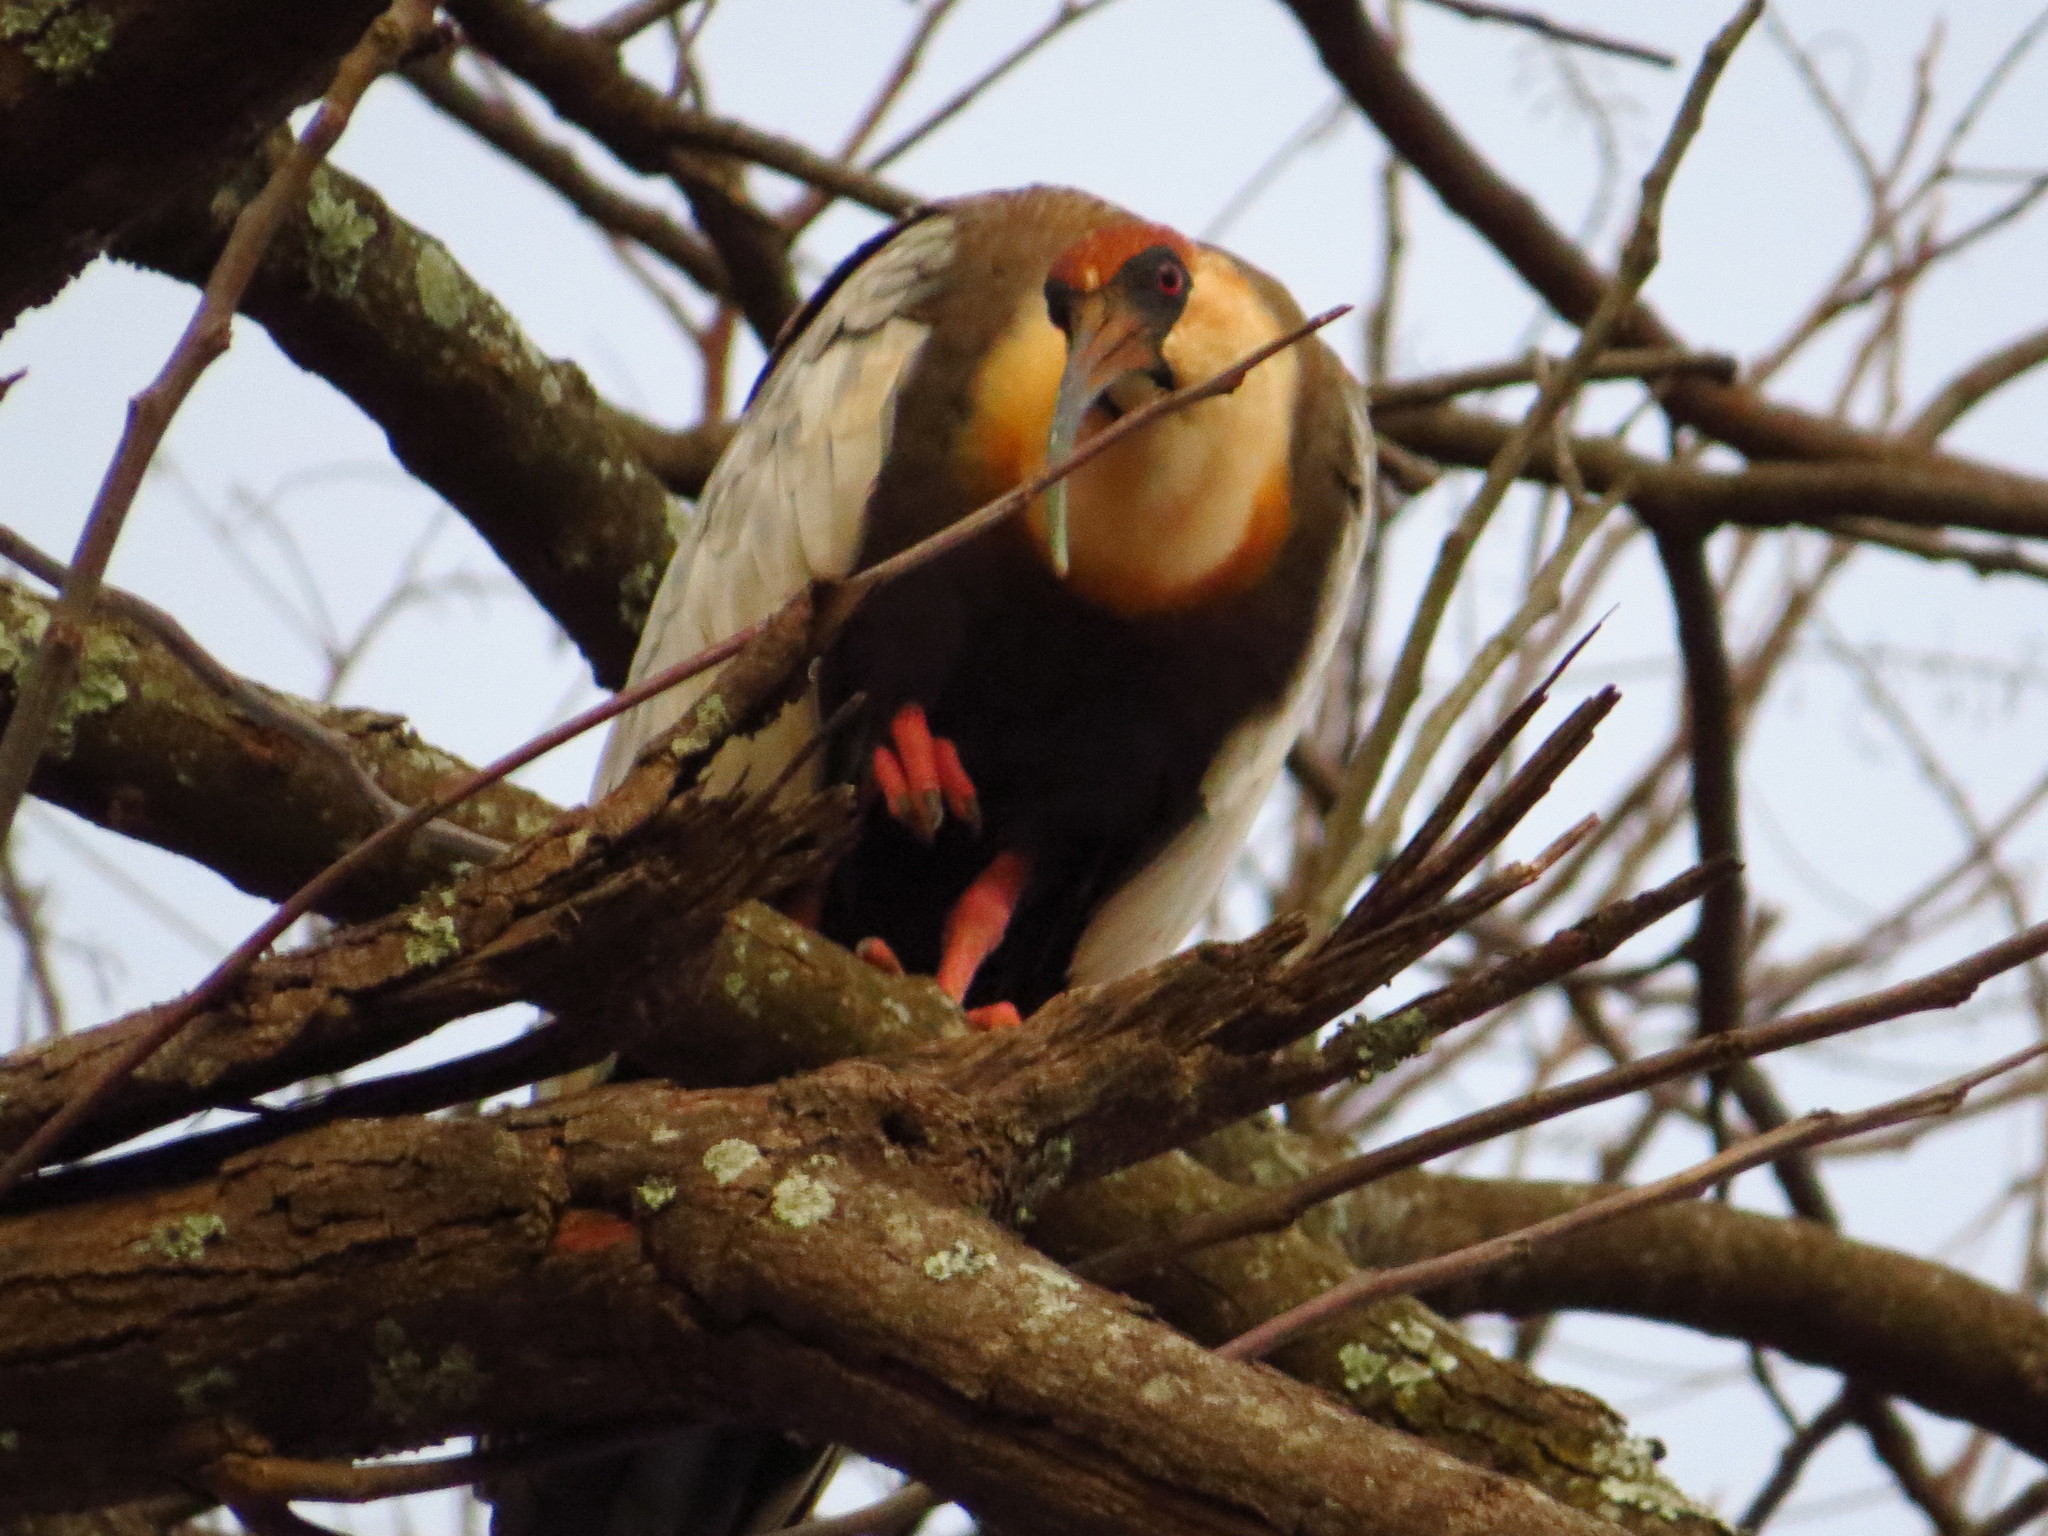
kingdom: Animalia
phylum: Chordata
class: Aves
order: Pelecaniformes
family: Threskiornithidae
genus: Theristicus
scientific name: Theristicus caudatus
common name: Buff-necked ibis
